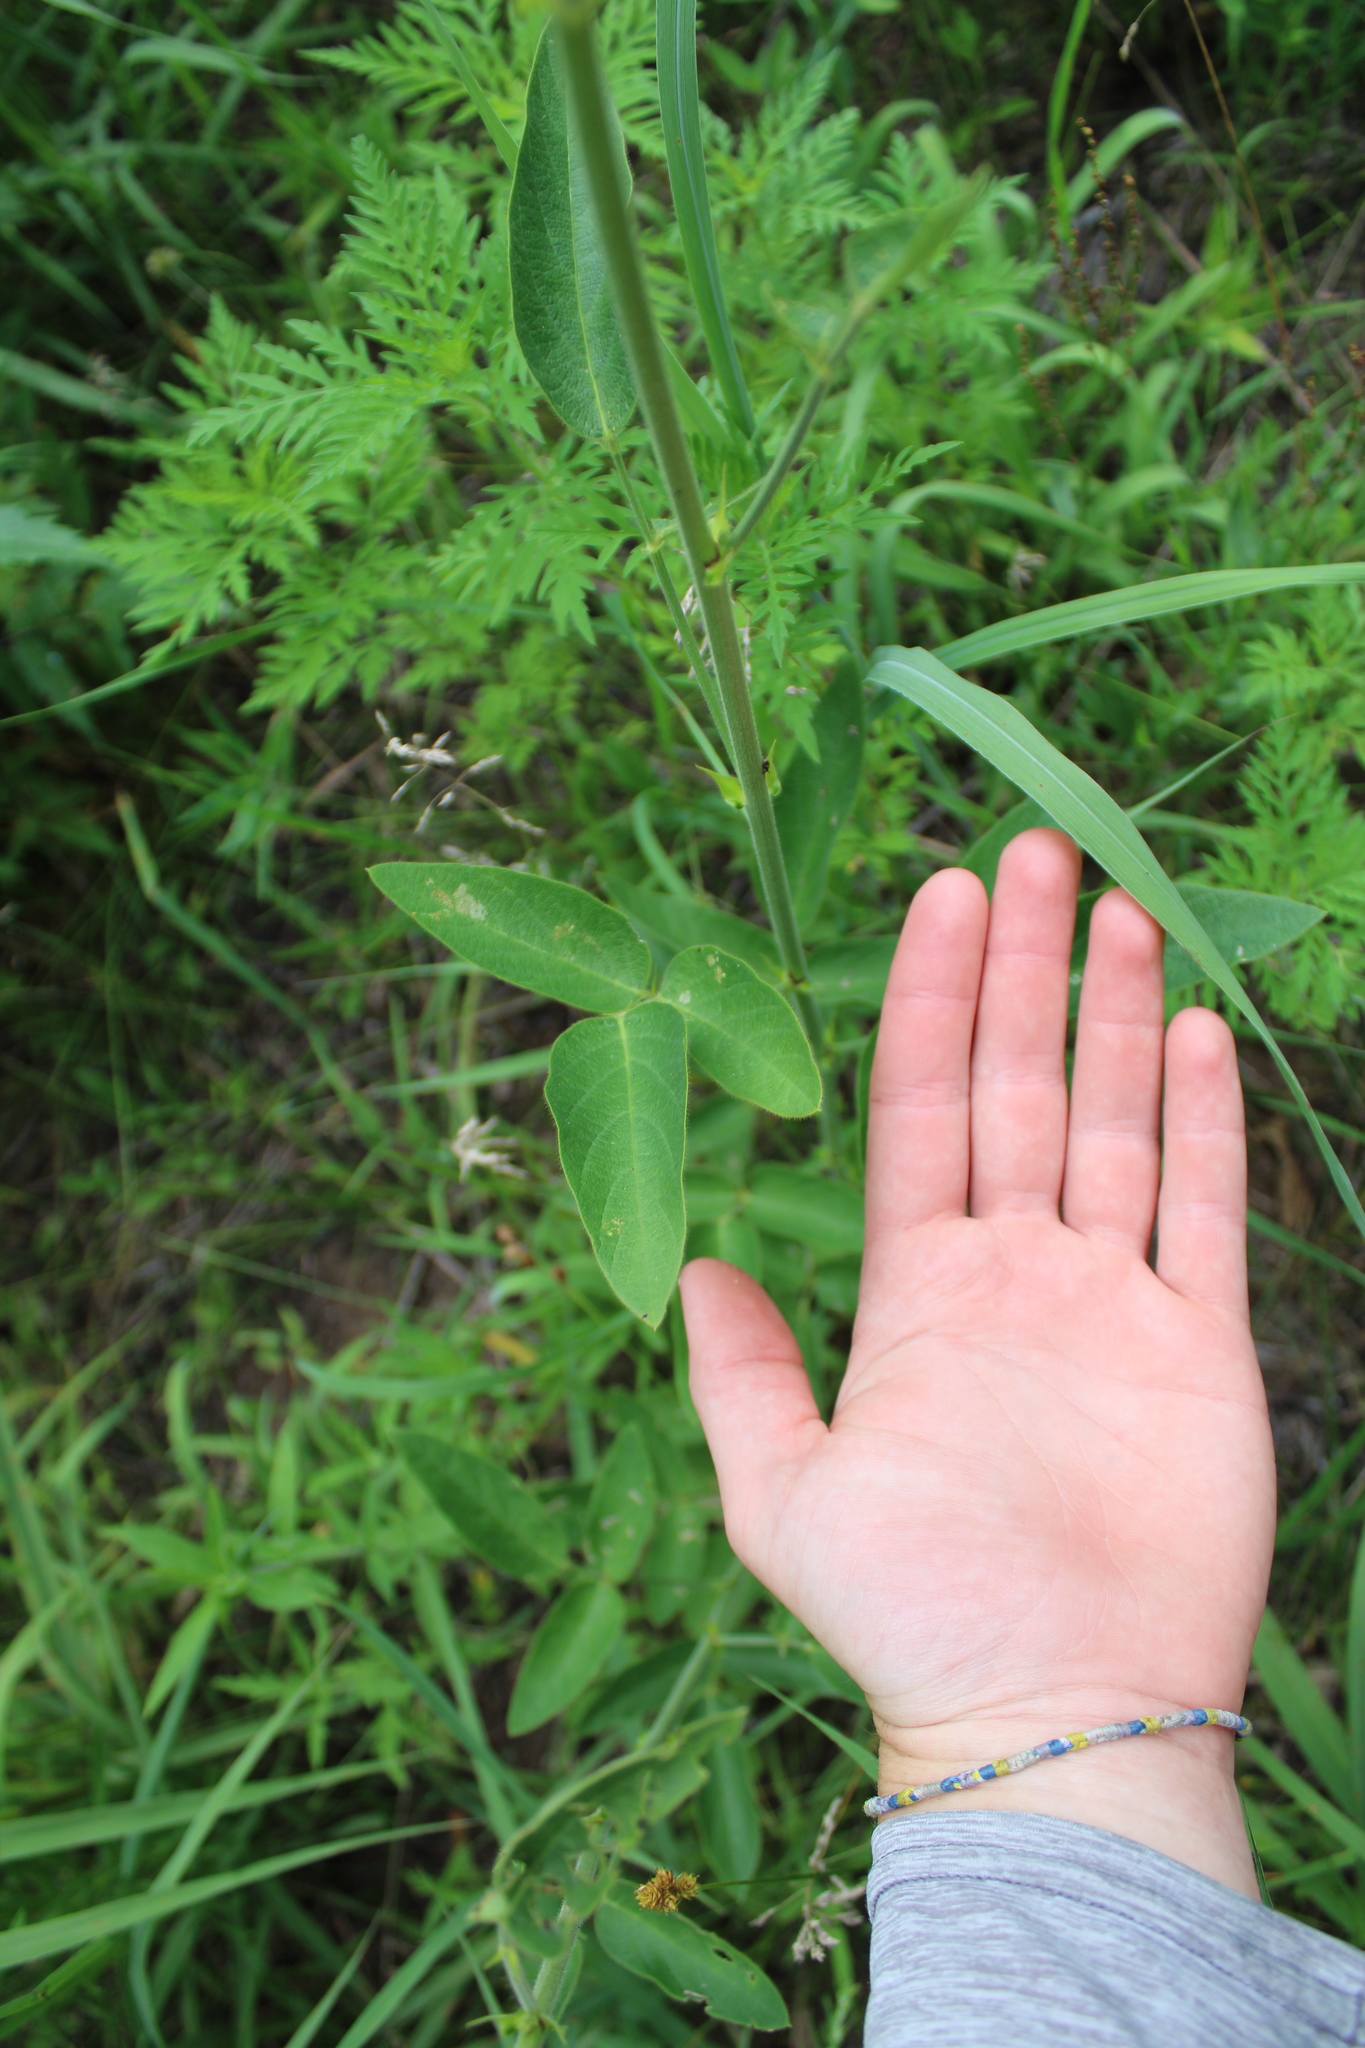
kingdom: Plantae
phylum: Tracheophyta
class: Magnoliopsida
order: Fabales
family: Fabaceae
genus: Desmodium
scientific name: Desmodium illinoense
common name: Illinois tick-clover
